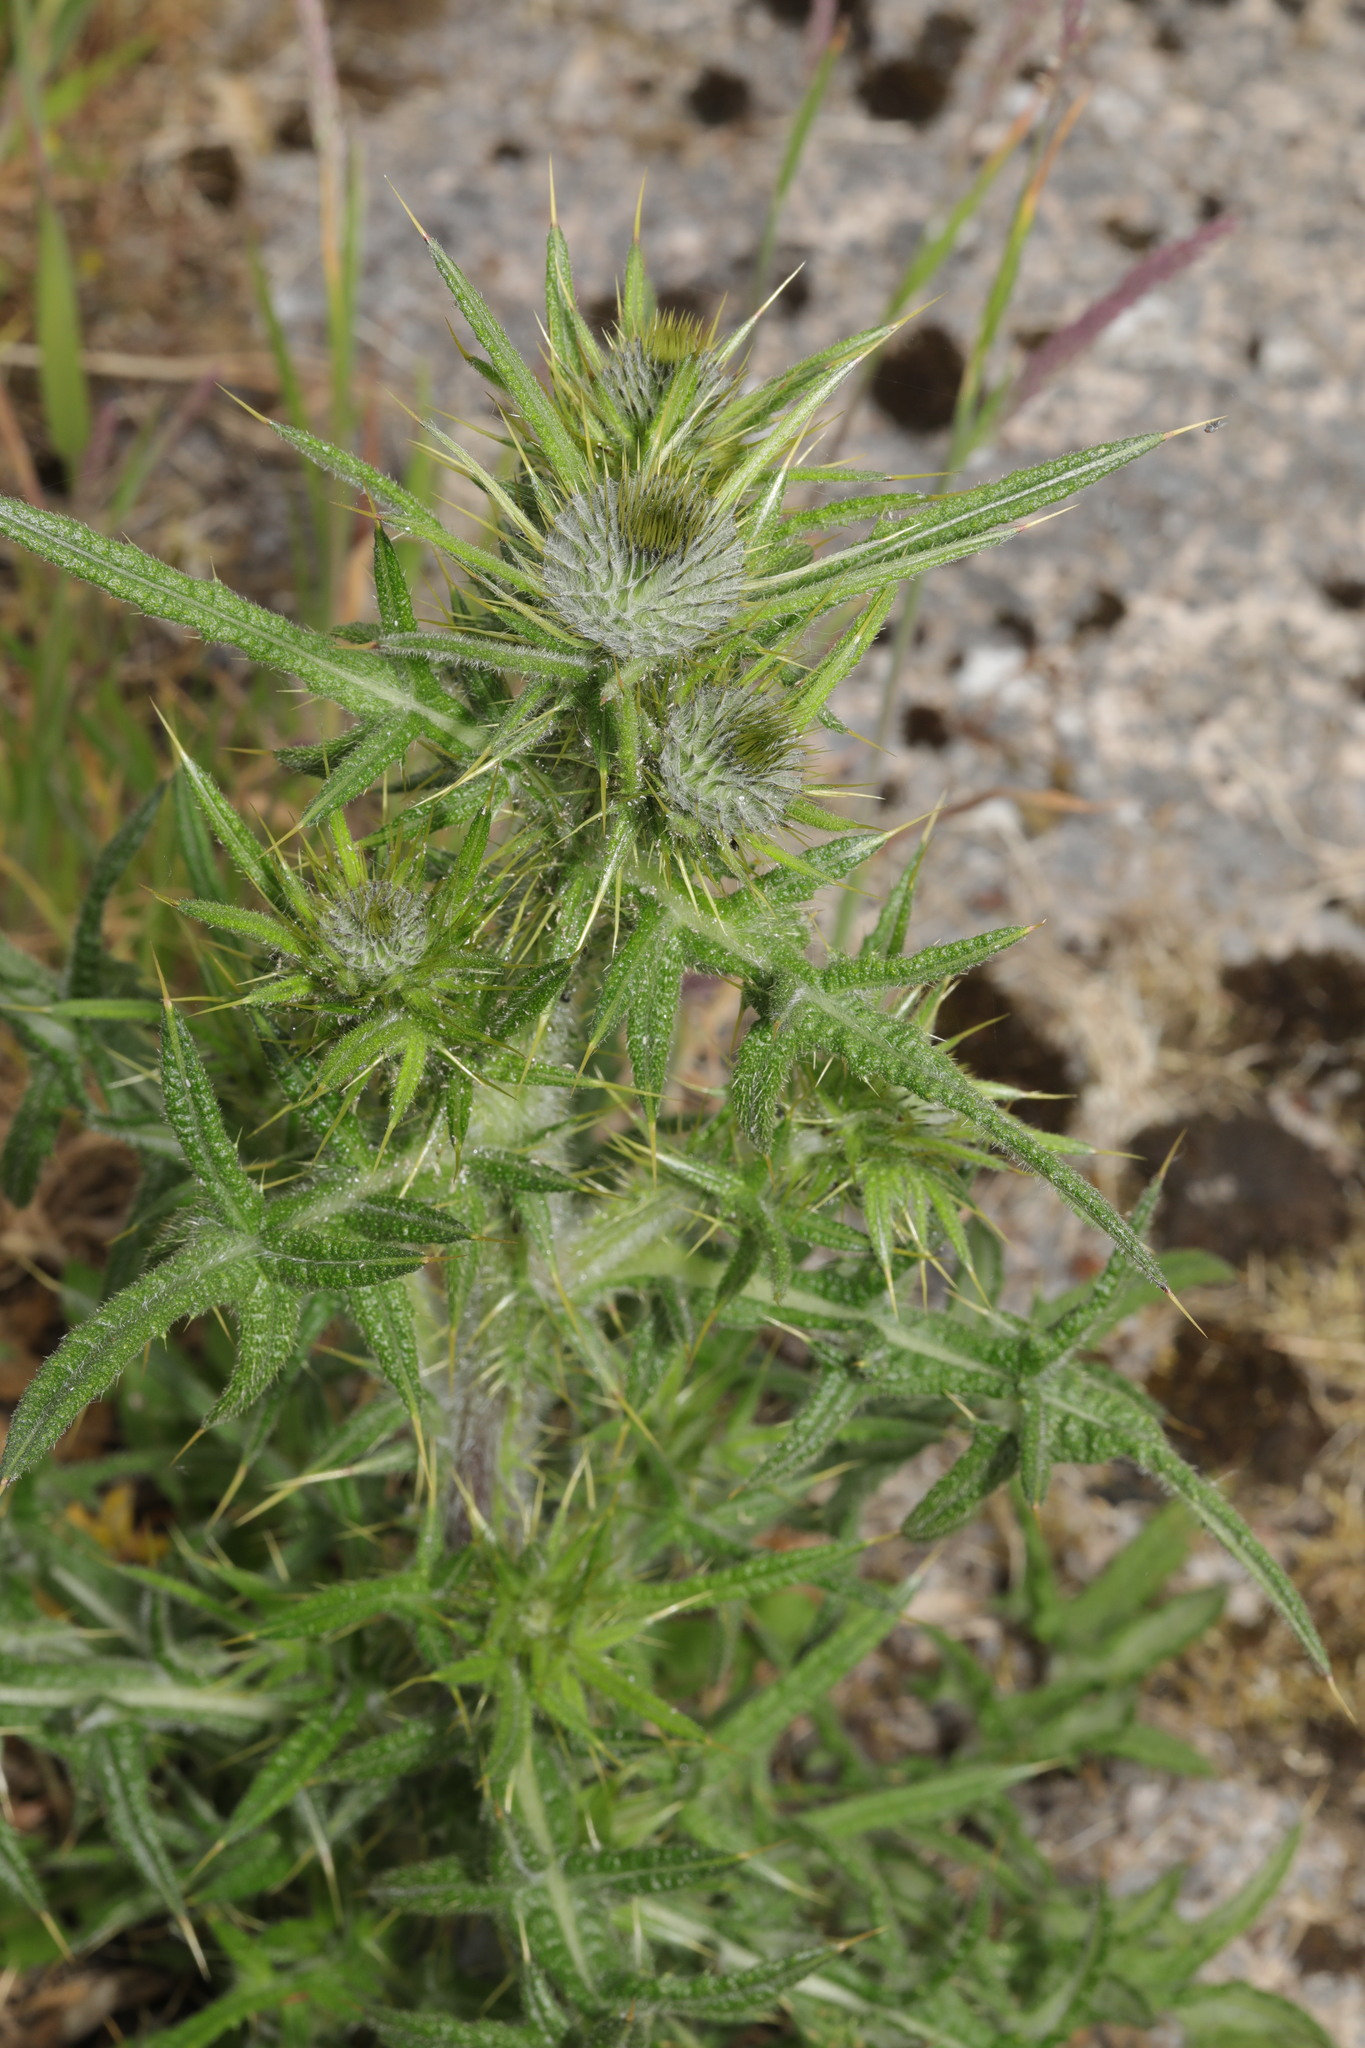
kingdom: Plantae
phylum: Tracheophyta
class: Magnoliopsida
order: Asterales
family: Asteraceae
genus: Cirsium
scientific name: Cirsium vulgare
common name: Bull thistle
